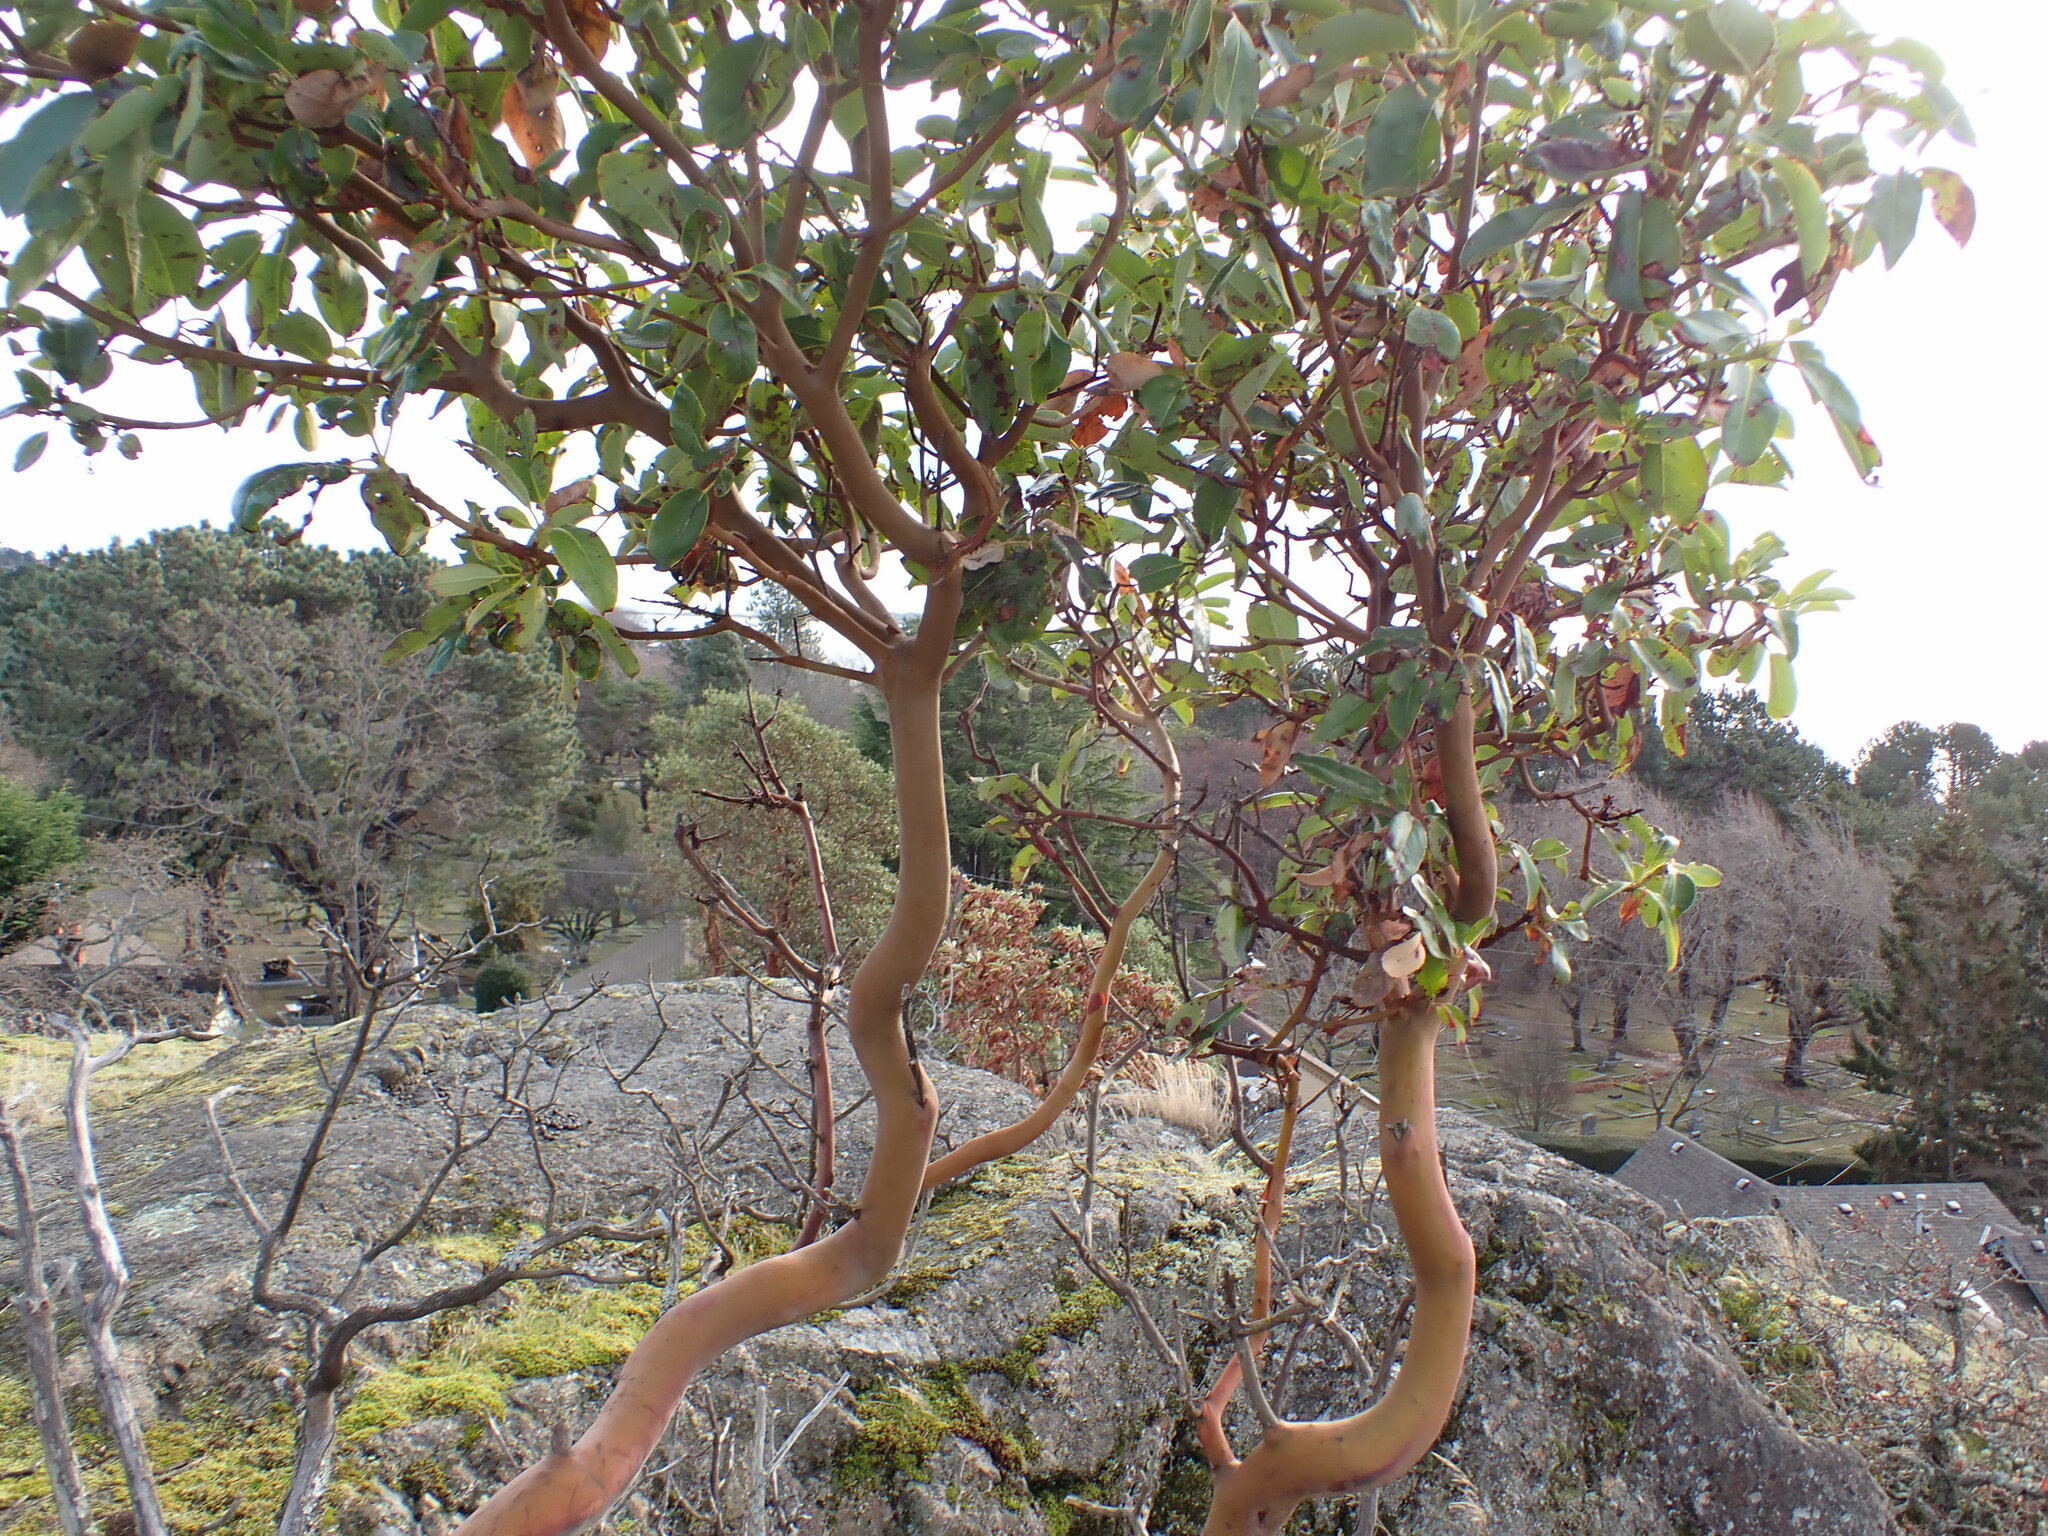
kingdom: Plantae
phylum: Tracheophyta
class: Magnoliopsida
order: Ericales
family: Ericaceae
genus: Arbutus
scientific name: Arbutus menziesii
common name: Pacific madrone
